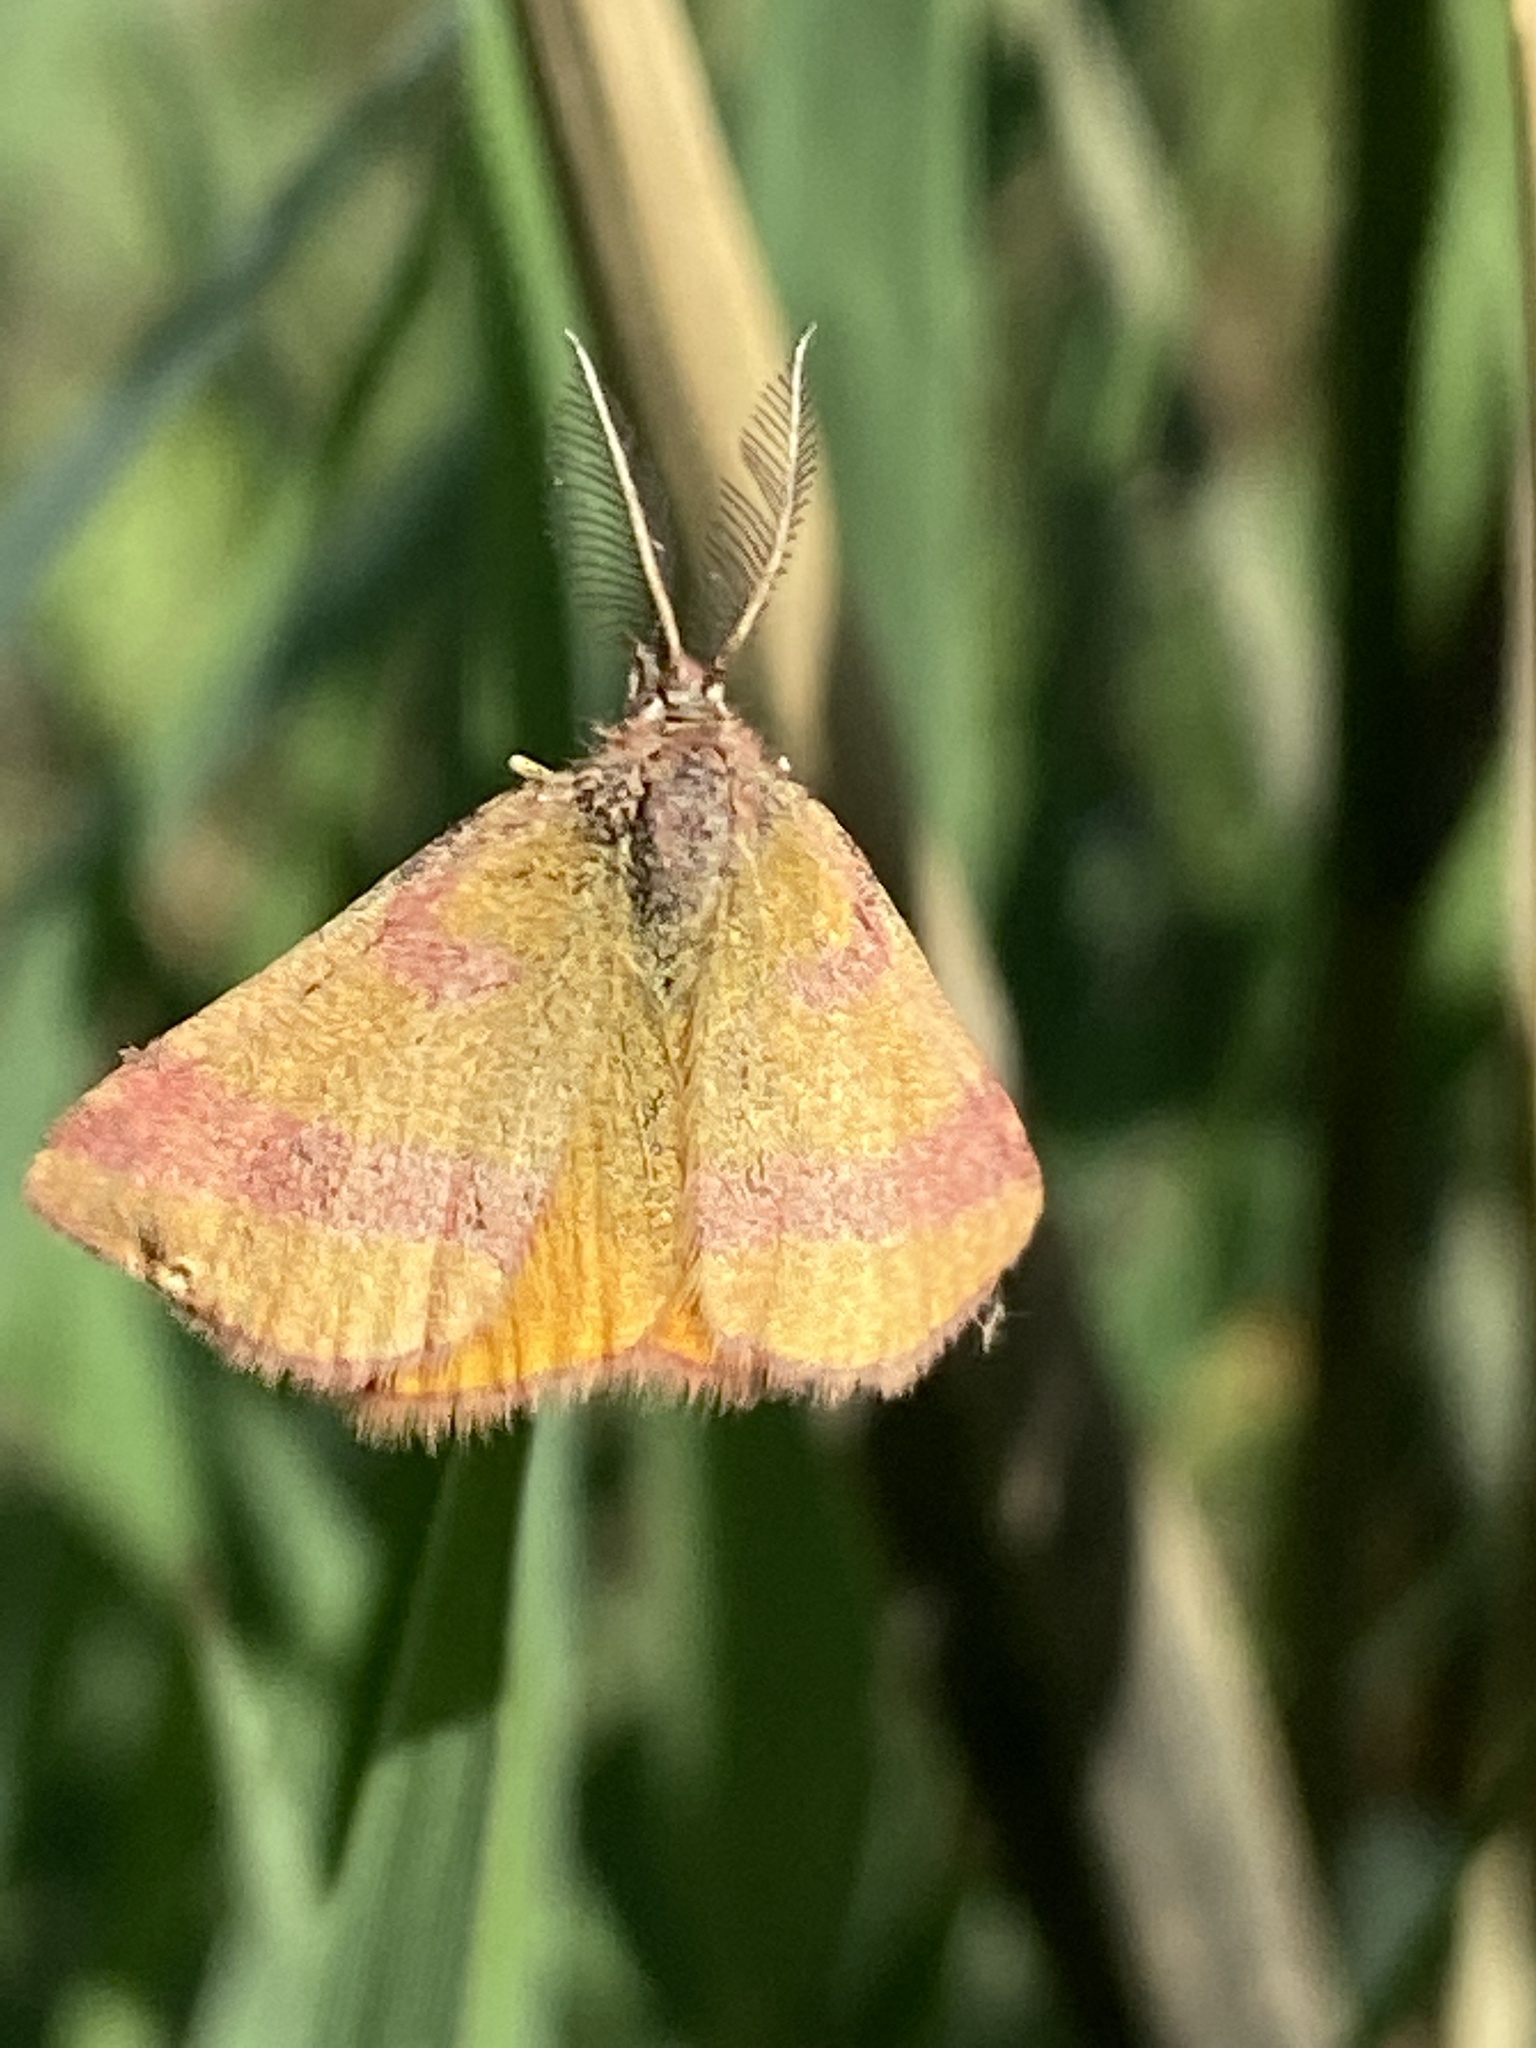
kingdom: Animalia
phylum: Arthropoda
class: Insecta
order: Lepidoptera
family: Geometridae
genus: Lythria
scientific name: Lythria cruentaria
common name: Purple-barred yellow
